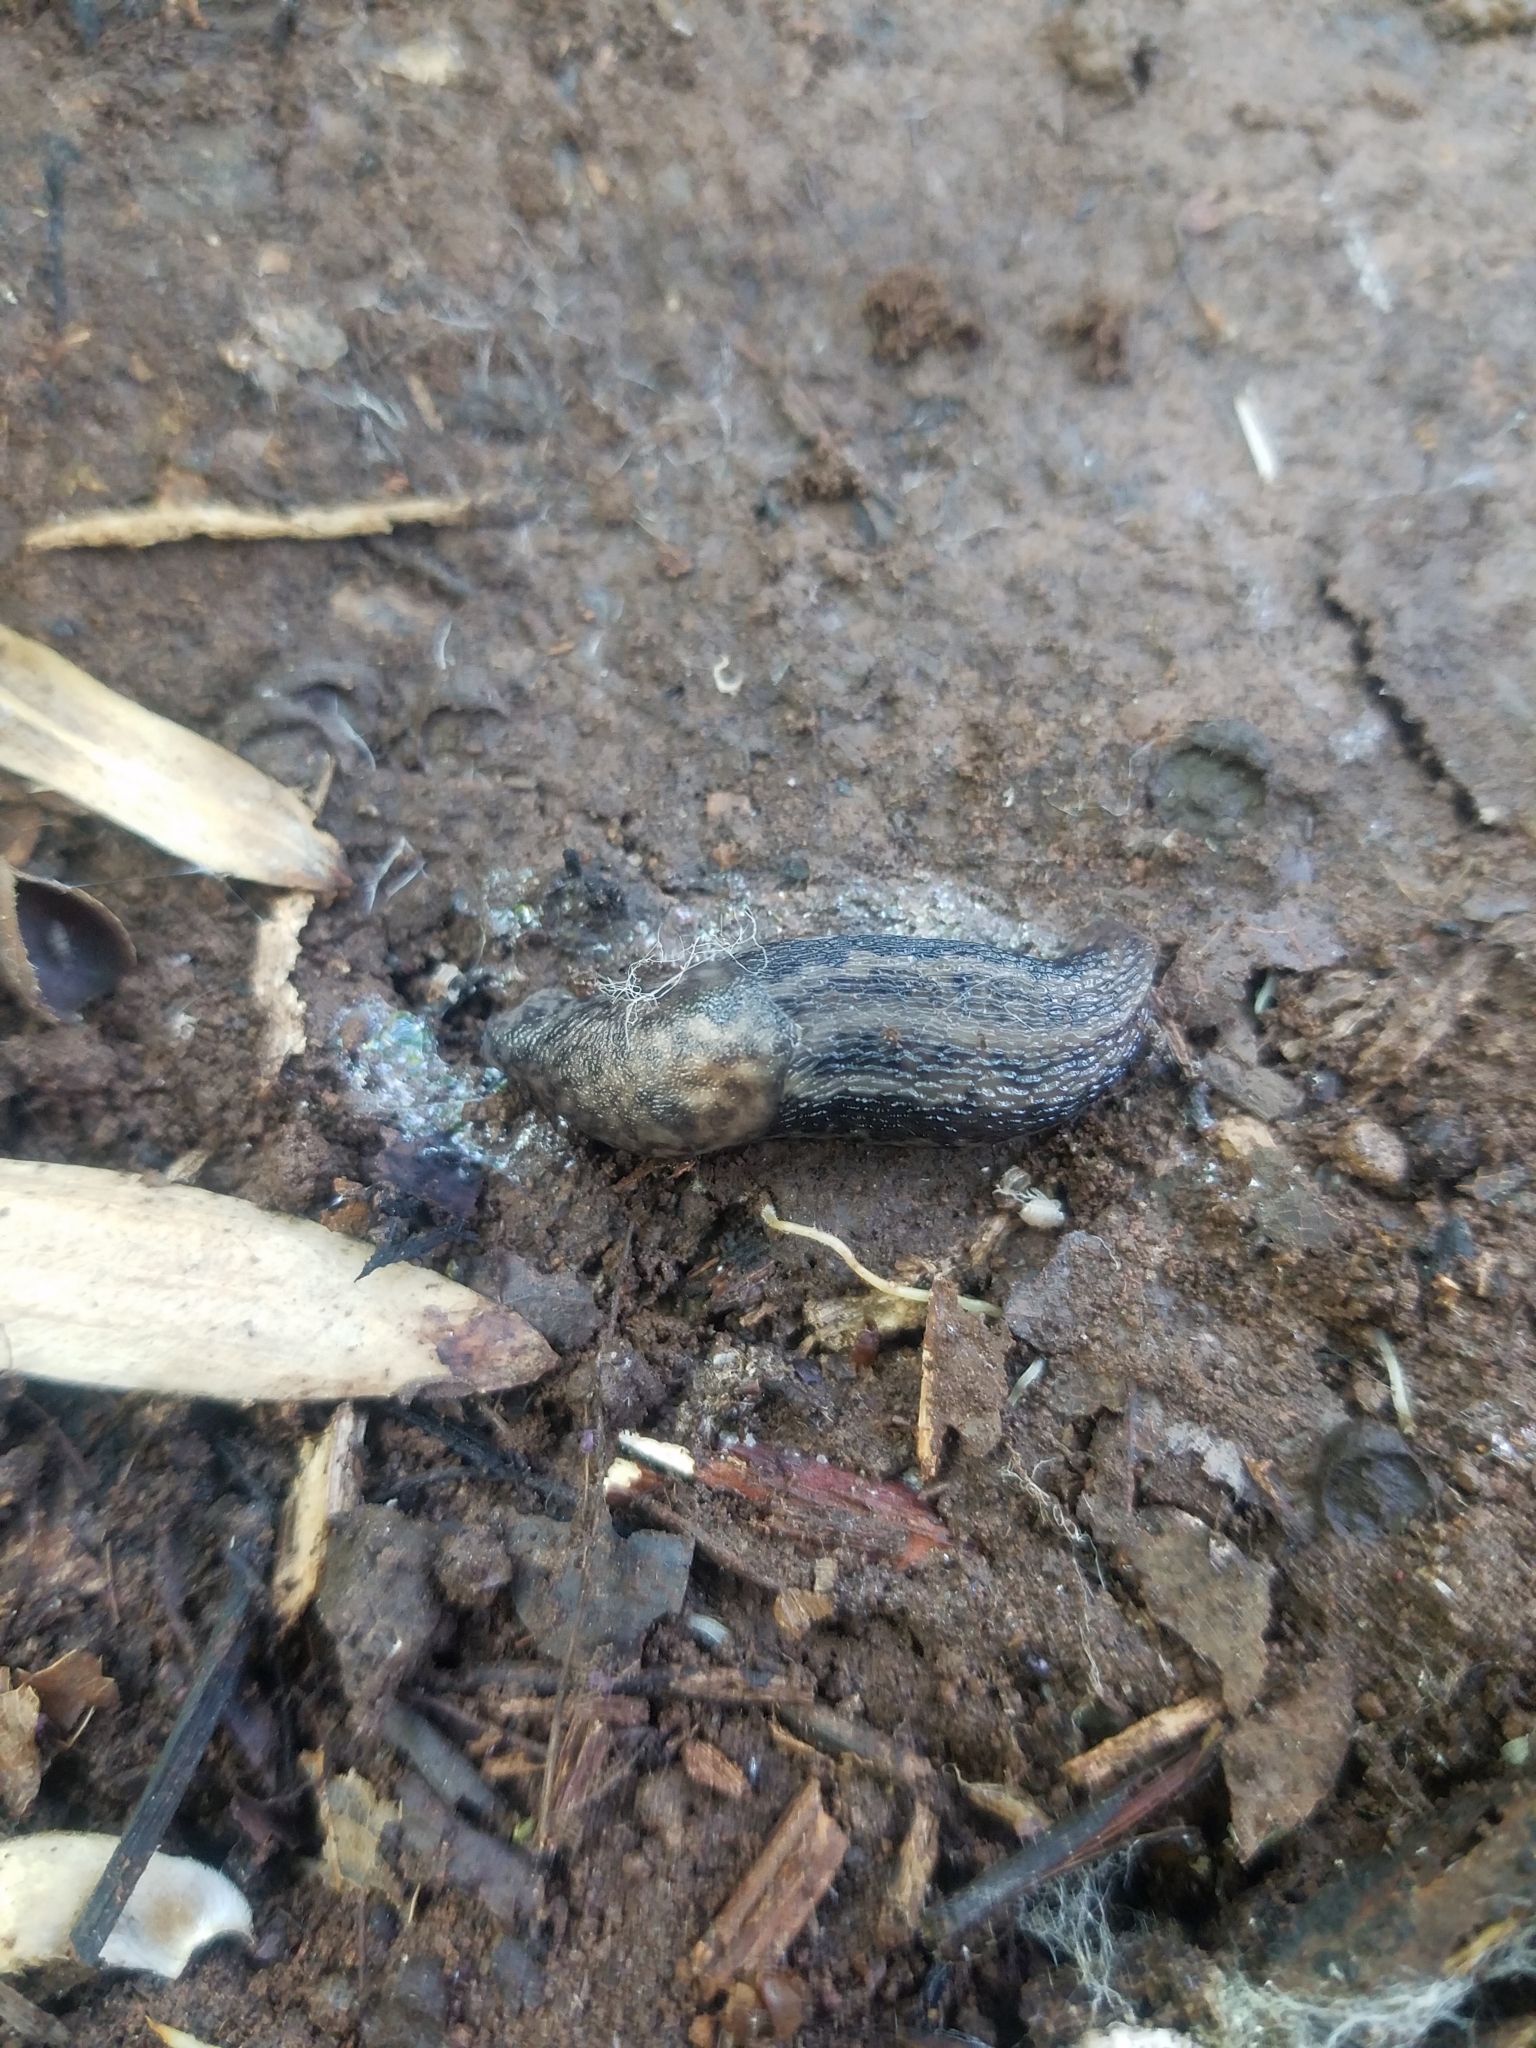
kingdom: Animalia
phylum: Mollusca
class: Gastropoda
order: Stylommatophora
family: Limacidae
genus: Limax
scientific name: Limax maximus
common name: Great grey slug
